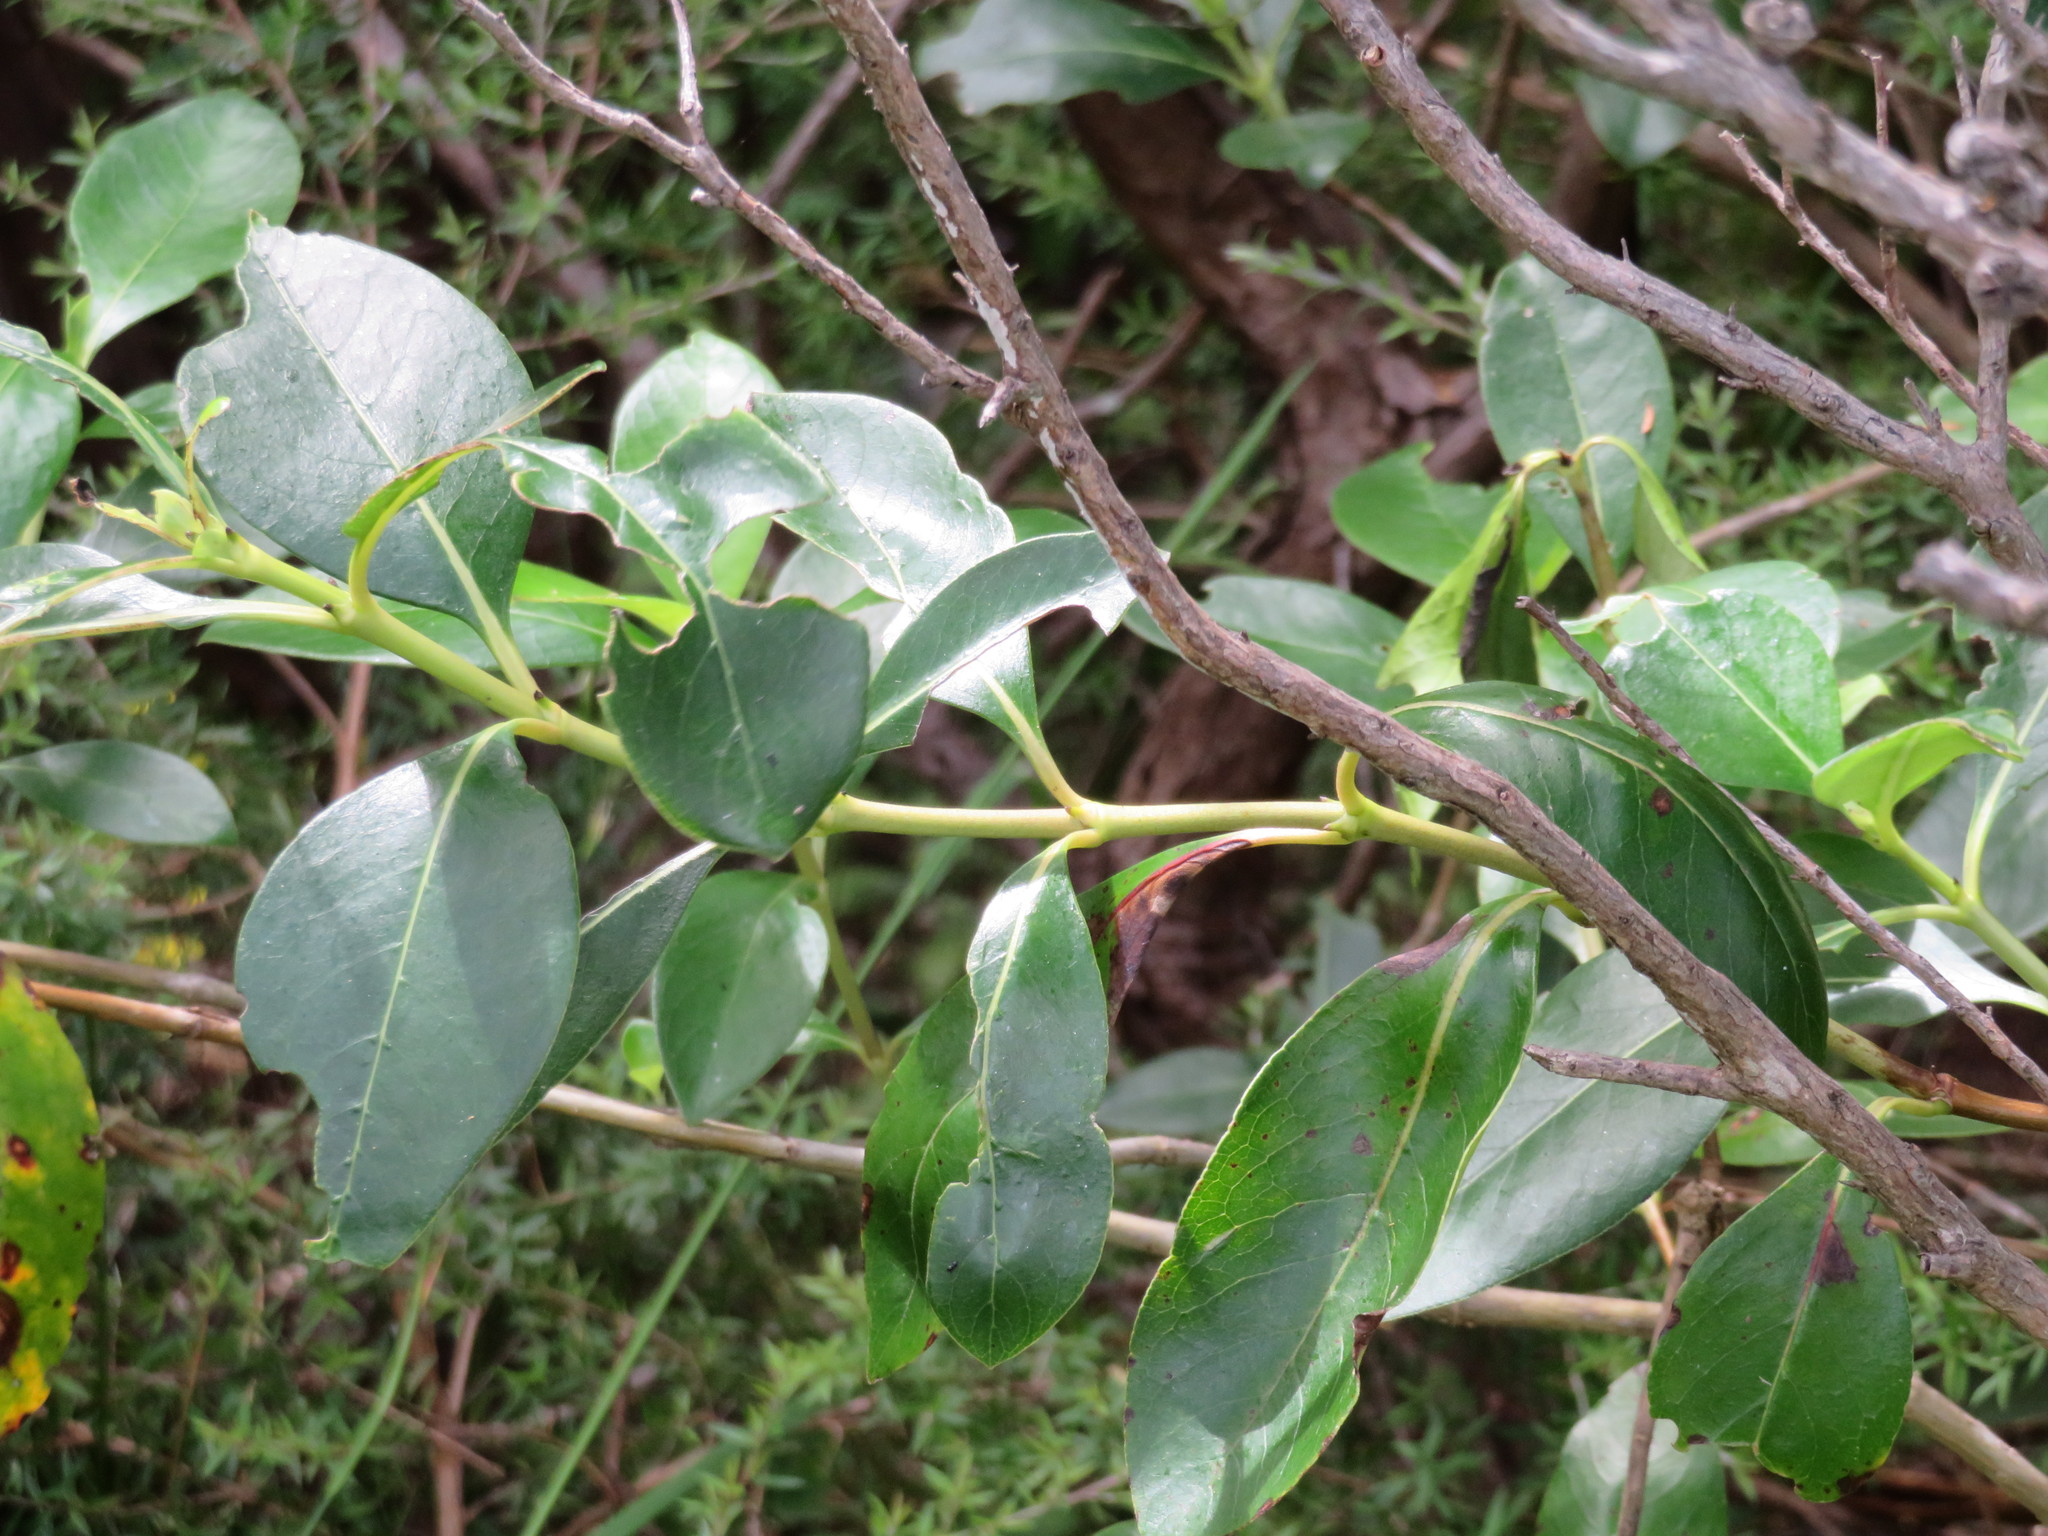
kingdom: Plantae
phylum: Tracheophyta
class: Magnoliopsida
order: Gentianales
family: Rubiaceae
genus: Coprosma
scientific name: Coprosma robusta
